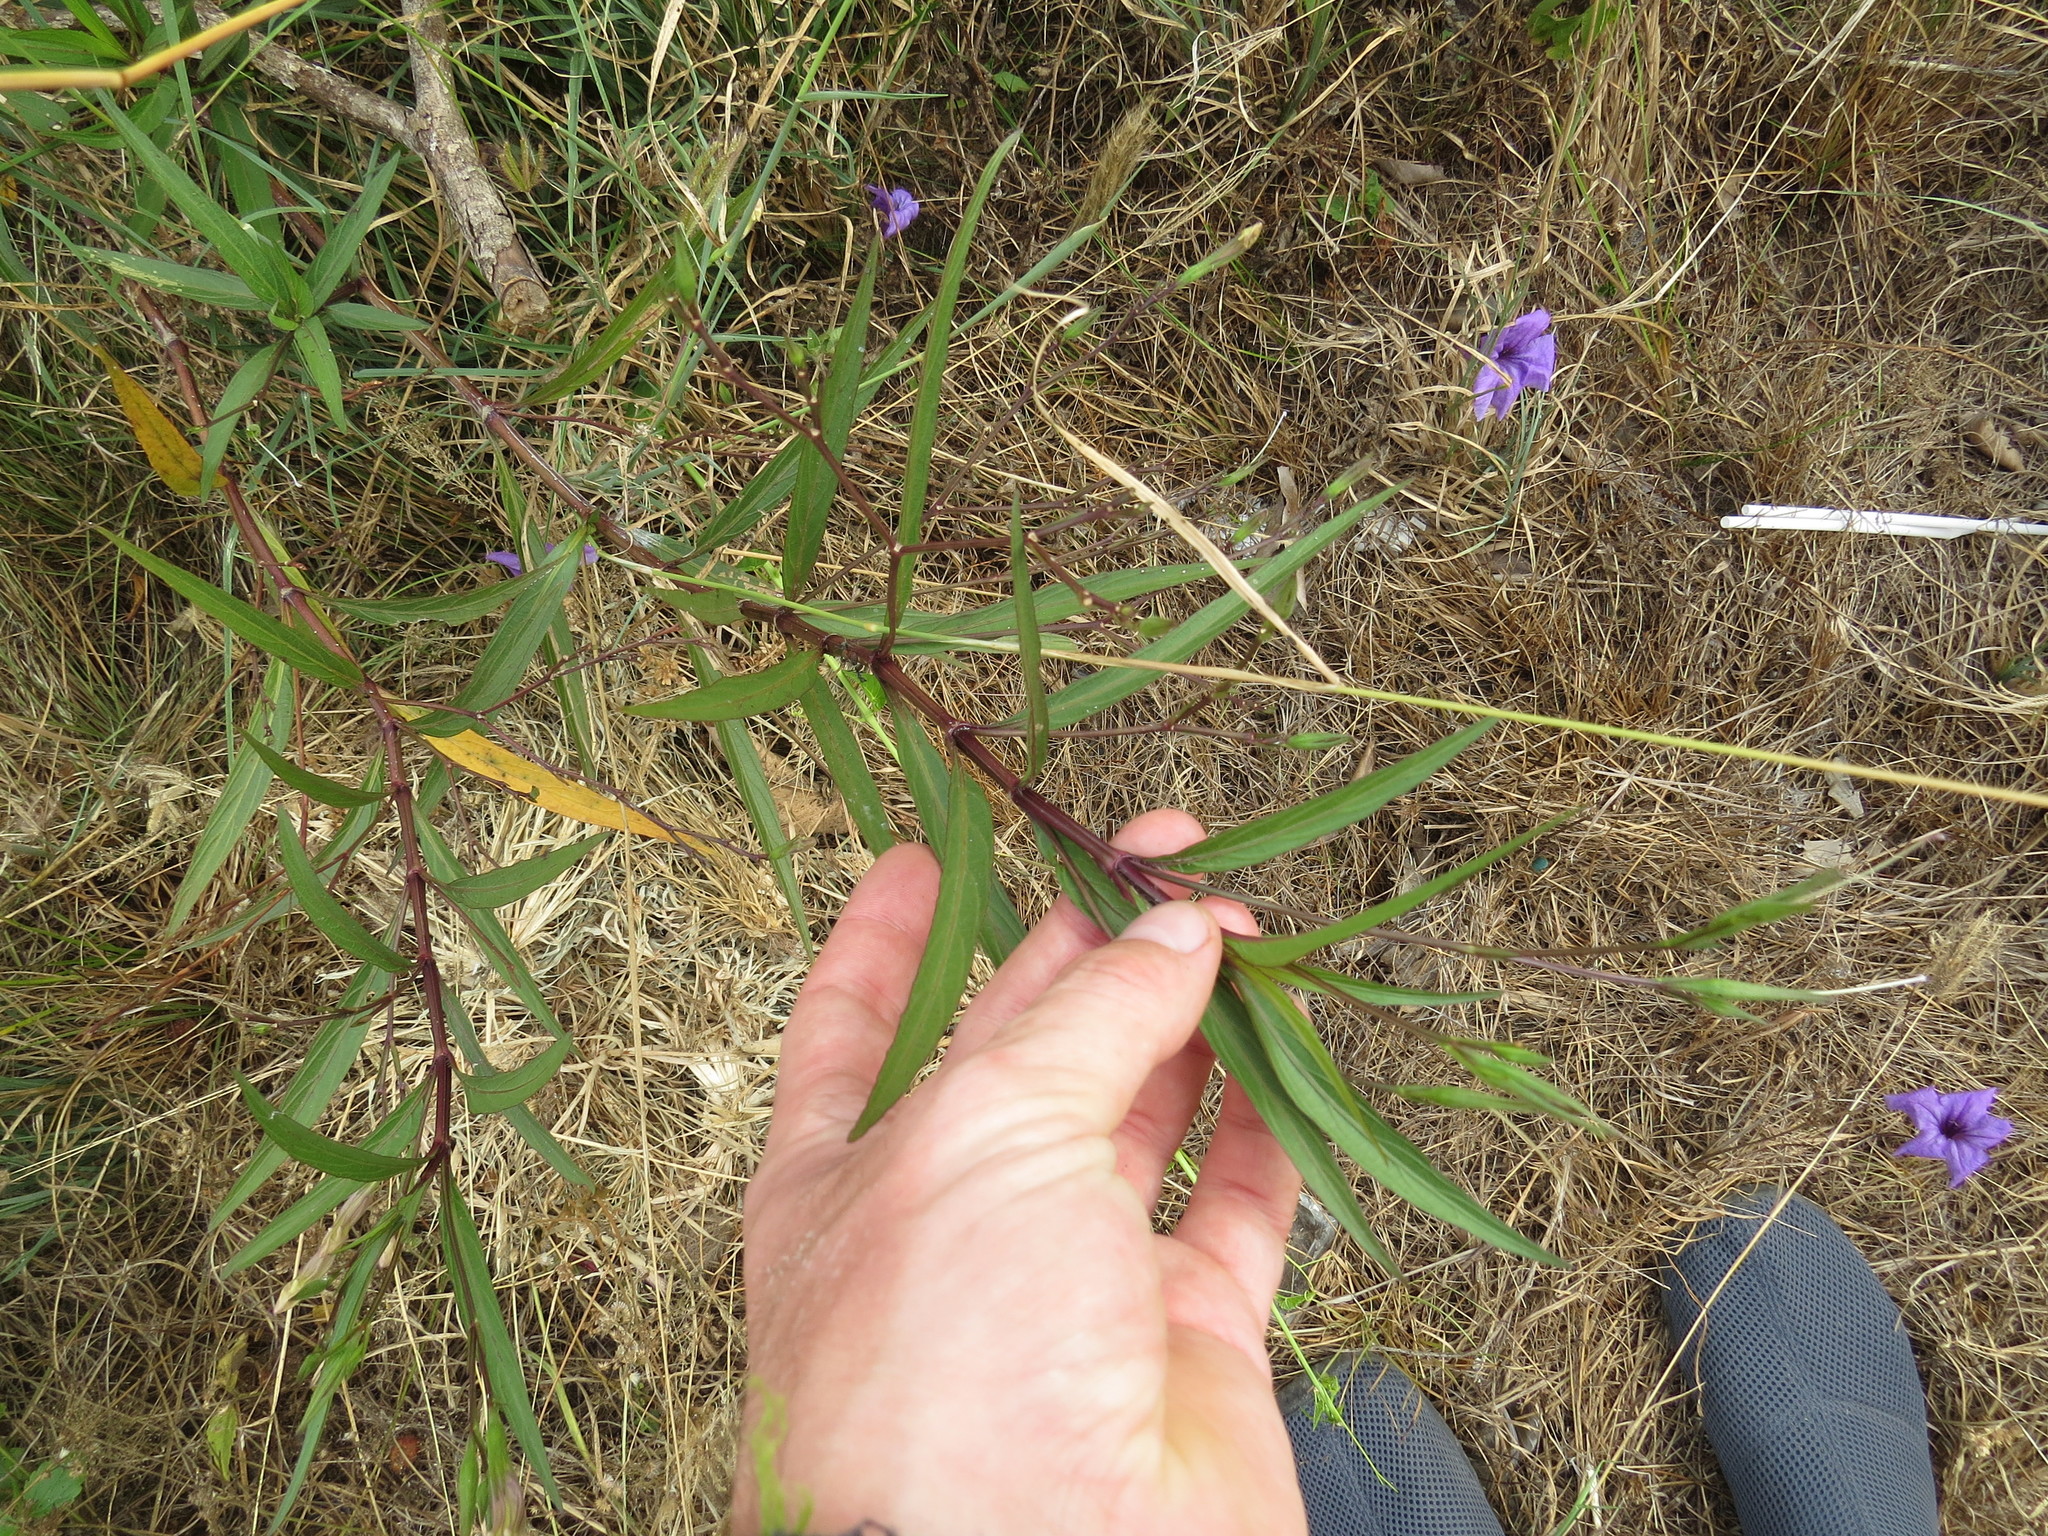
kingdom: Plantae
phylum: Tracheophyta
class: Magnoliopsida
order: Lamiales
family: Acanthaceae
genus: Ruellia
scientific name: Ruellia simplex
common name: Softseed wild petunia
